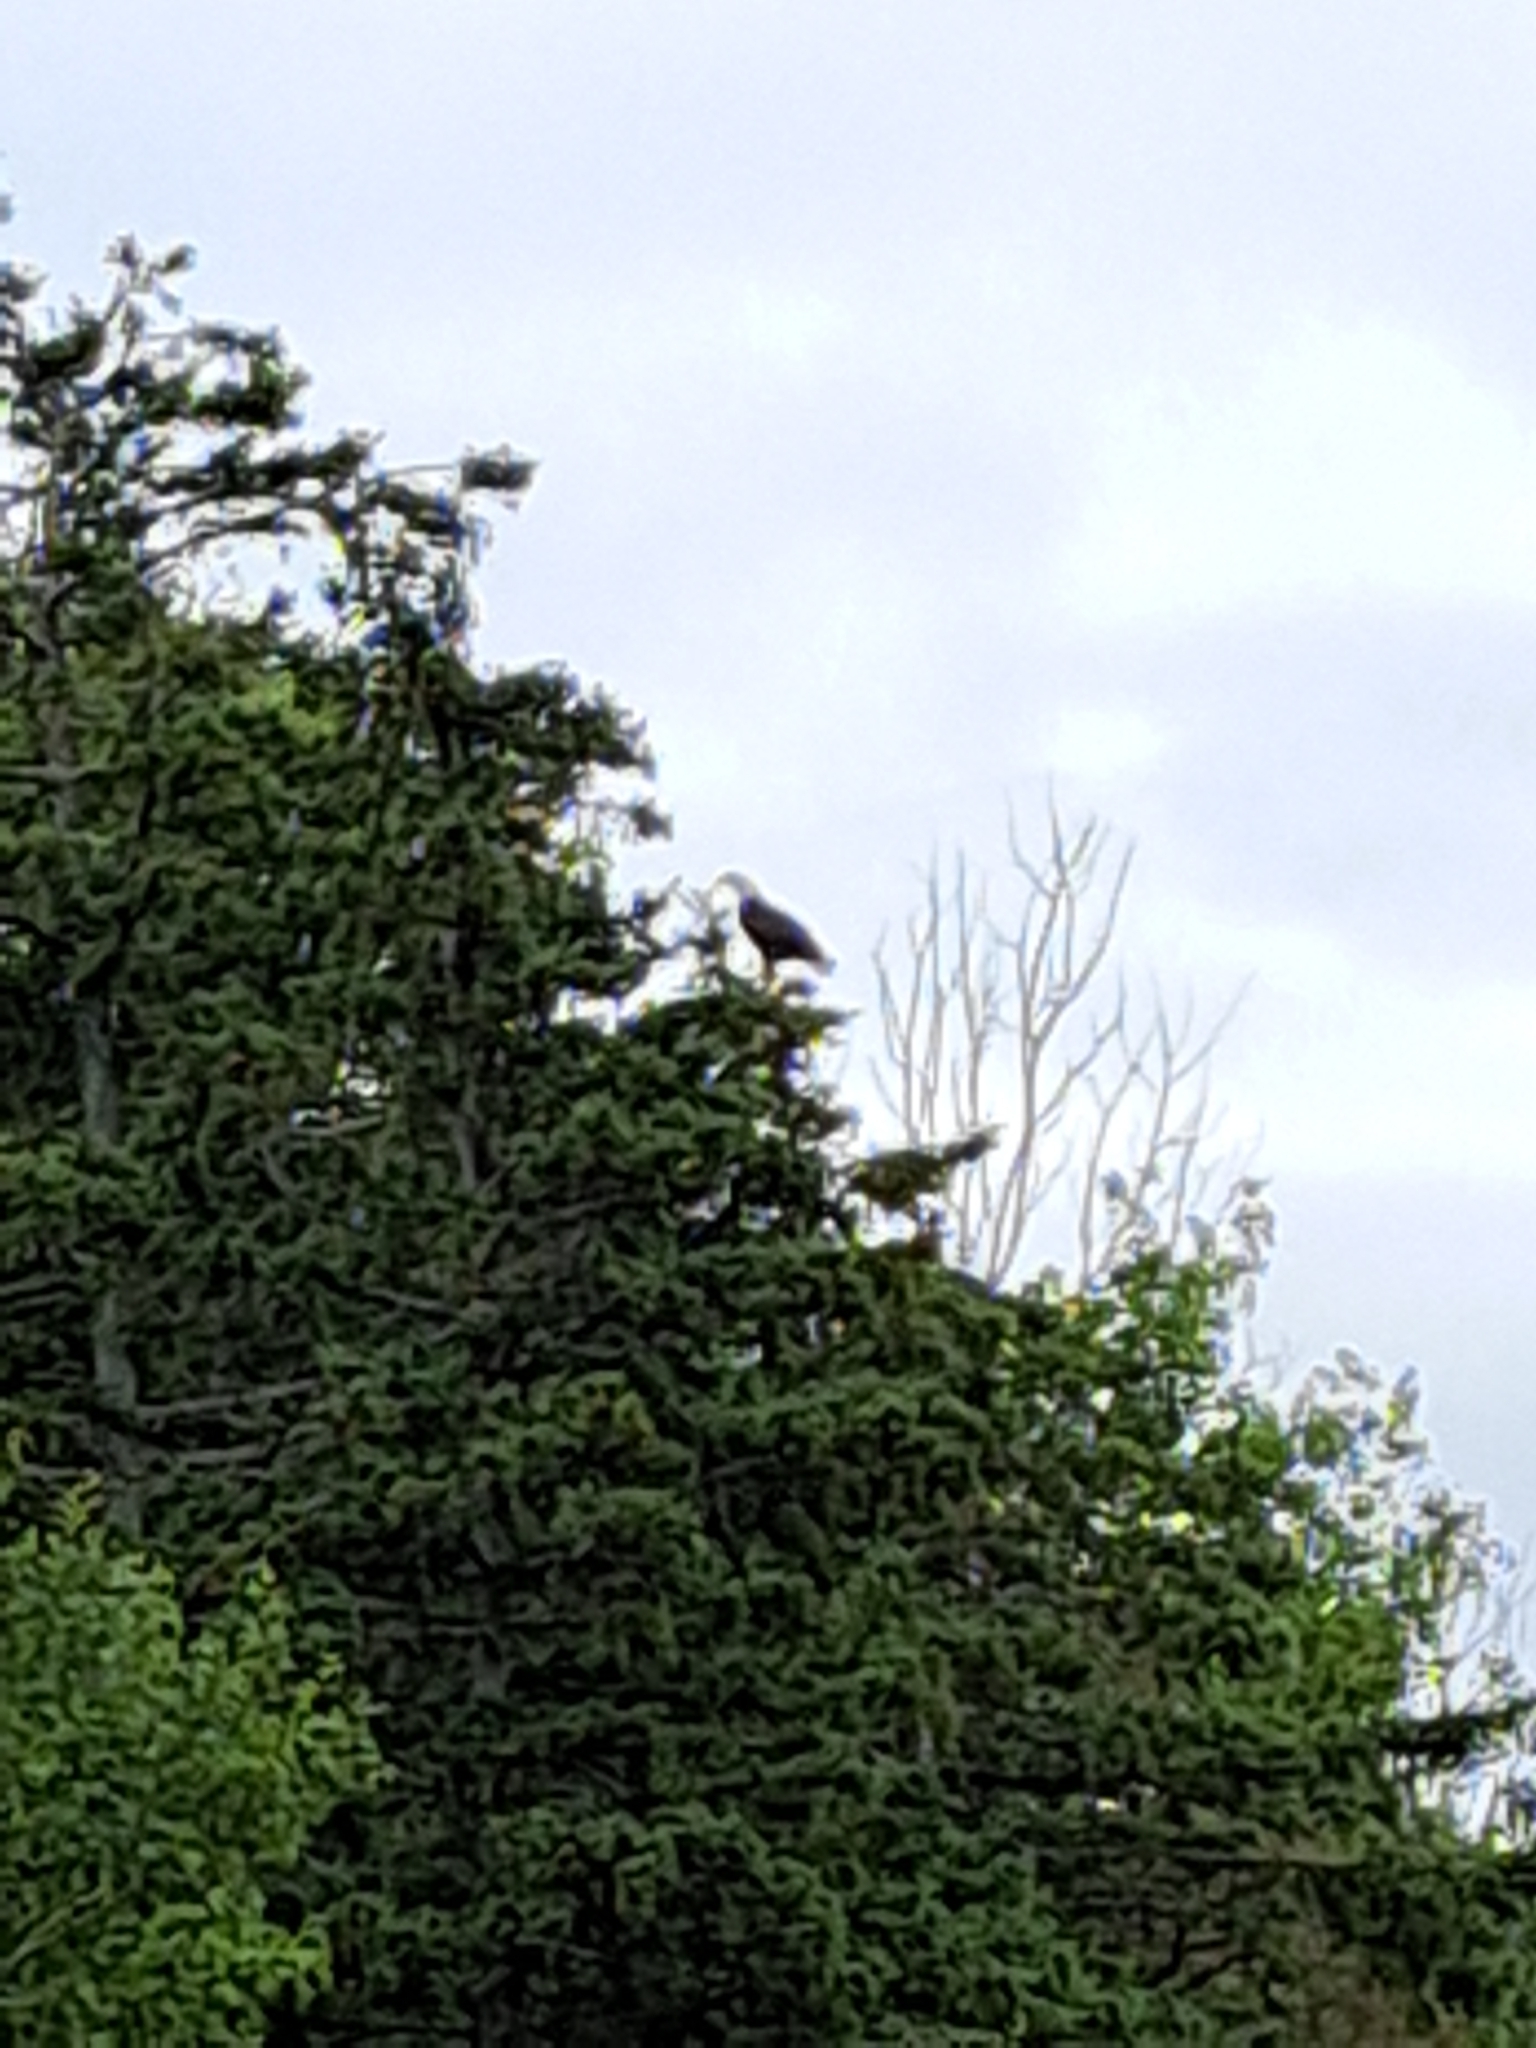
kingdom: Animalia
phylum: Chordata
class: Aves
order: Accipitriformes
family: Accipitridae
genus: Haliaeetus
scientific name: Haliaeetus leucocephalus
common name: Bald eagle
